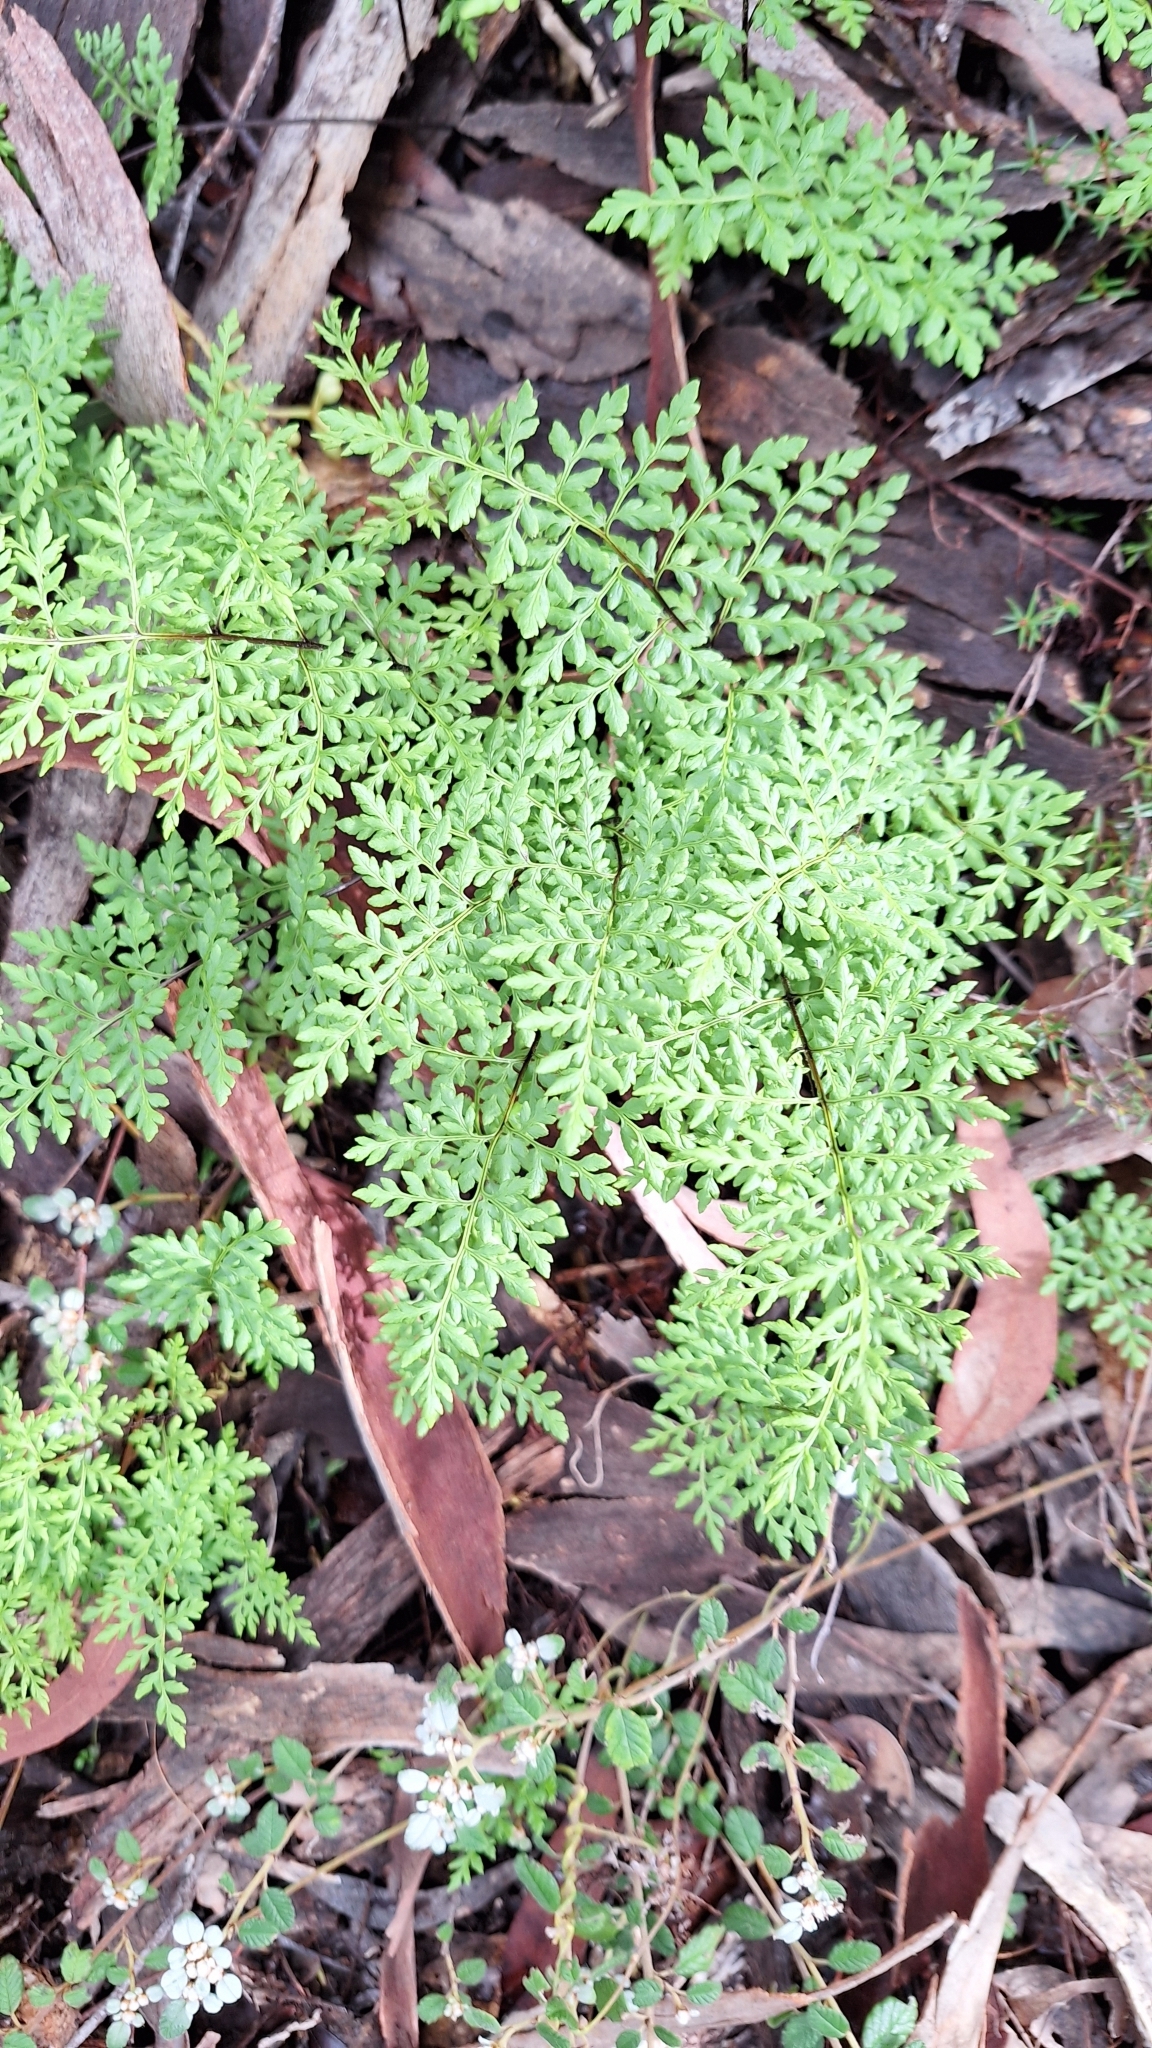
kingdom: Plantae
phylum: Tracheophyta
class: Polypodiopsida
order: Polypodiales
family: Pteridaceae
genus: Cheilanthes
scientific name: Cheilanthes austrotenuifolia
